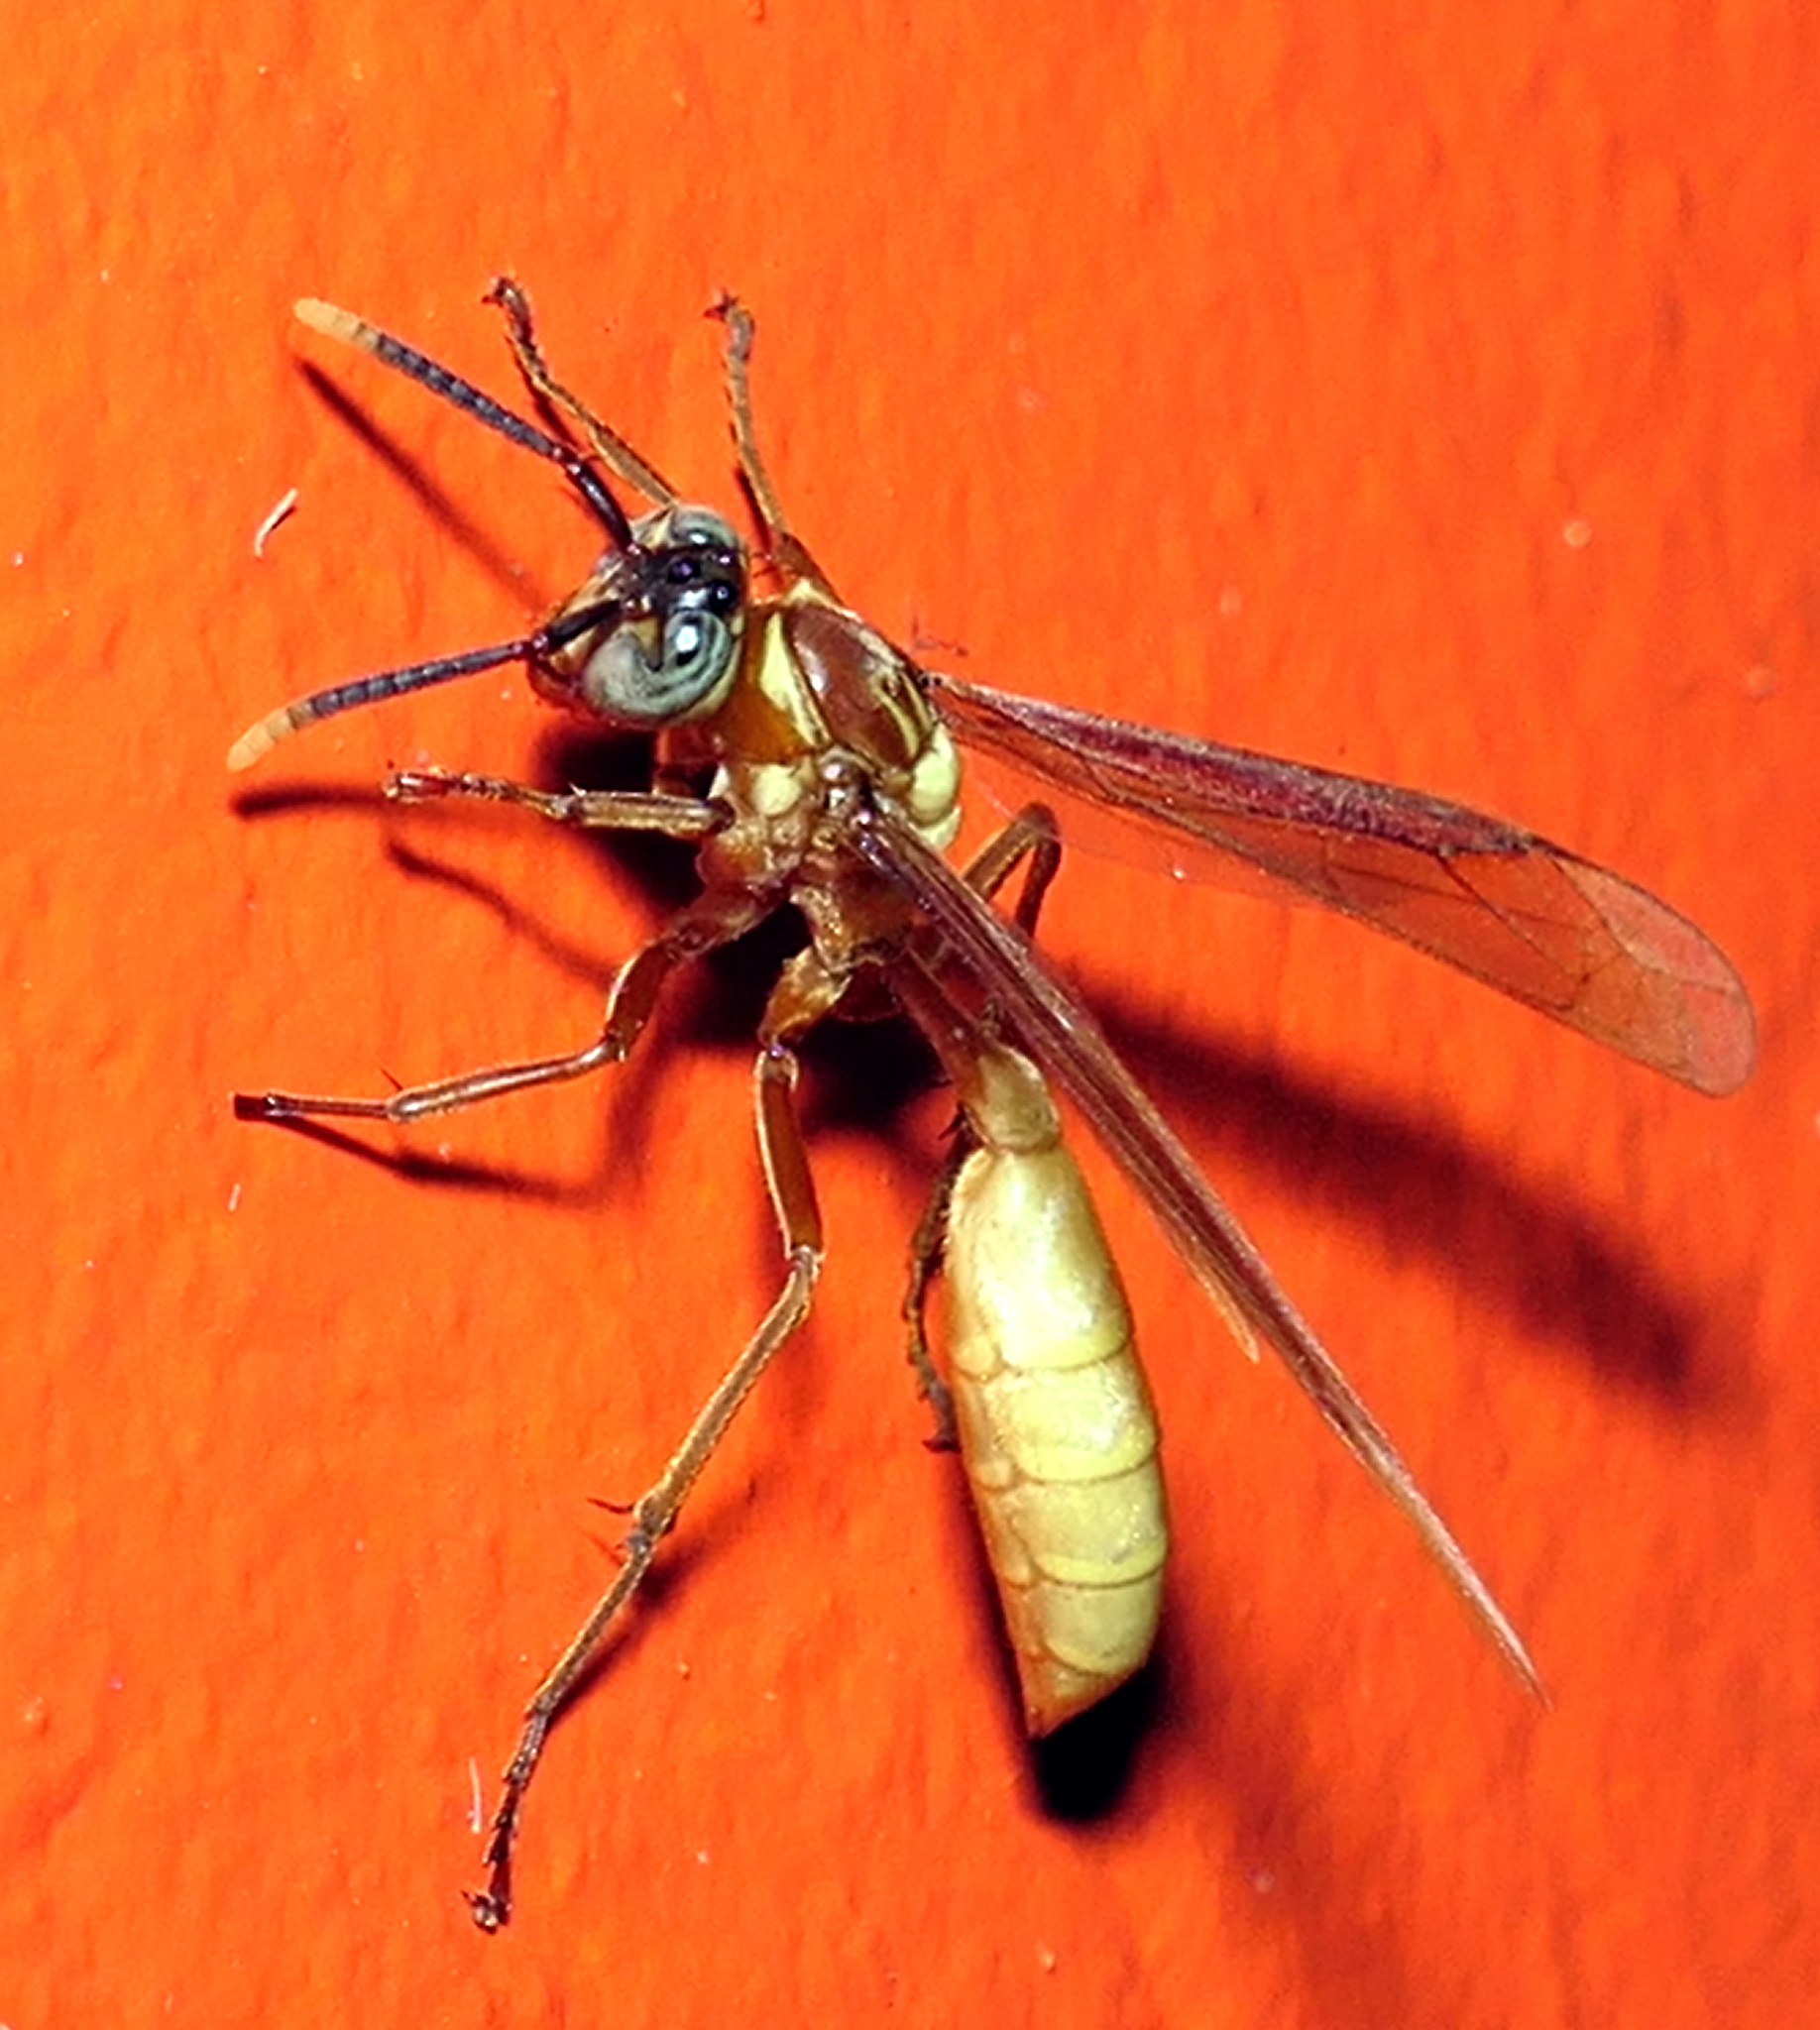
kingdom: Animalia
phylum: Arthropoda
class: Insecta
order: Hymenoptera
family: Vespidae
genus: Apoica
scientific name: Apoica flavissima
